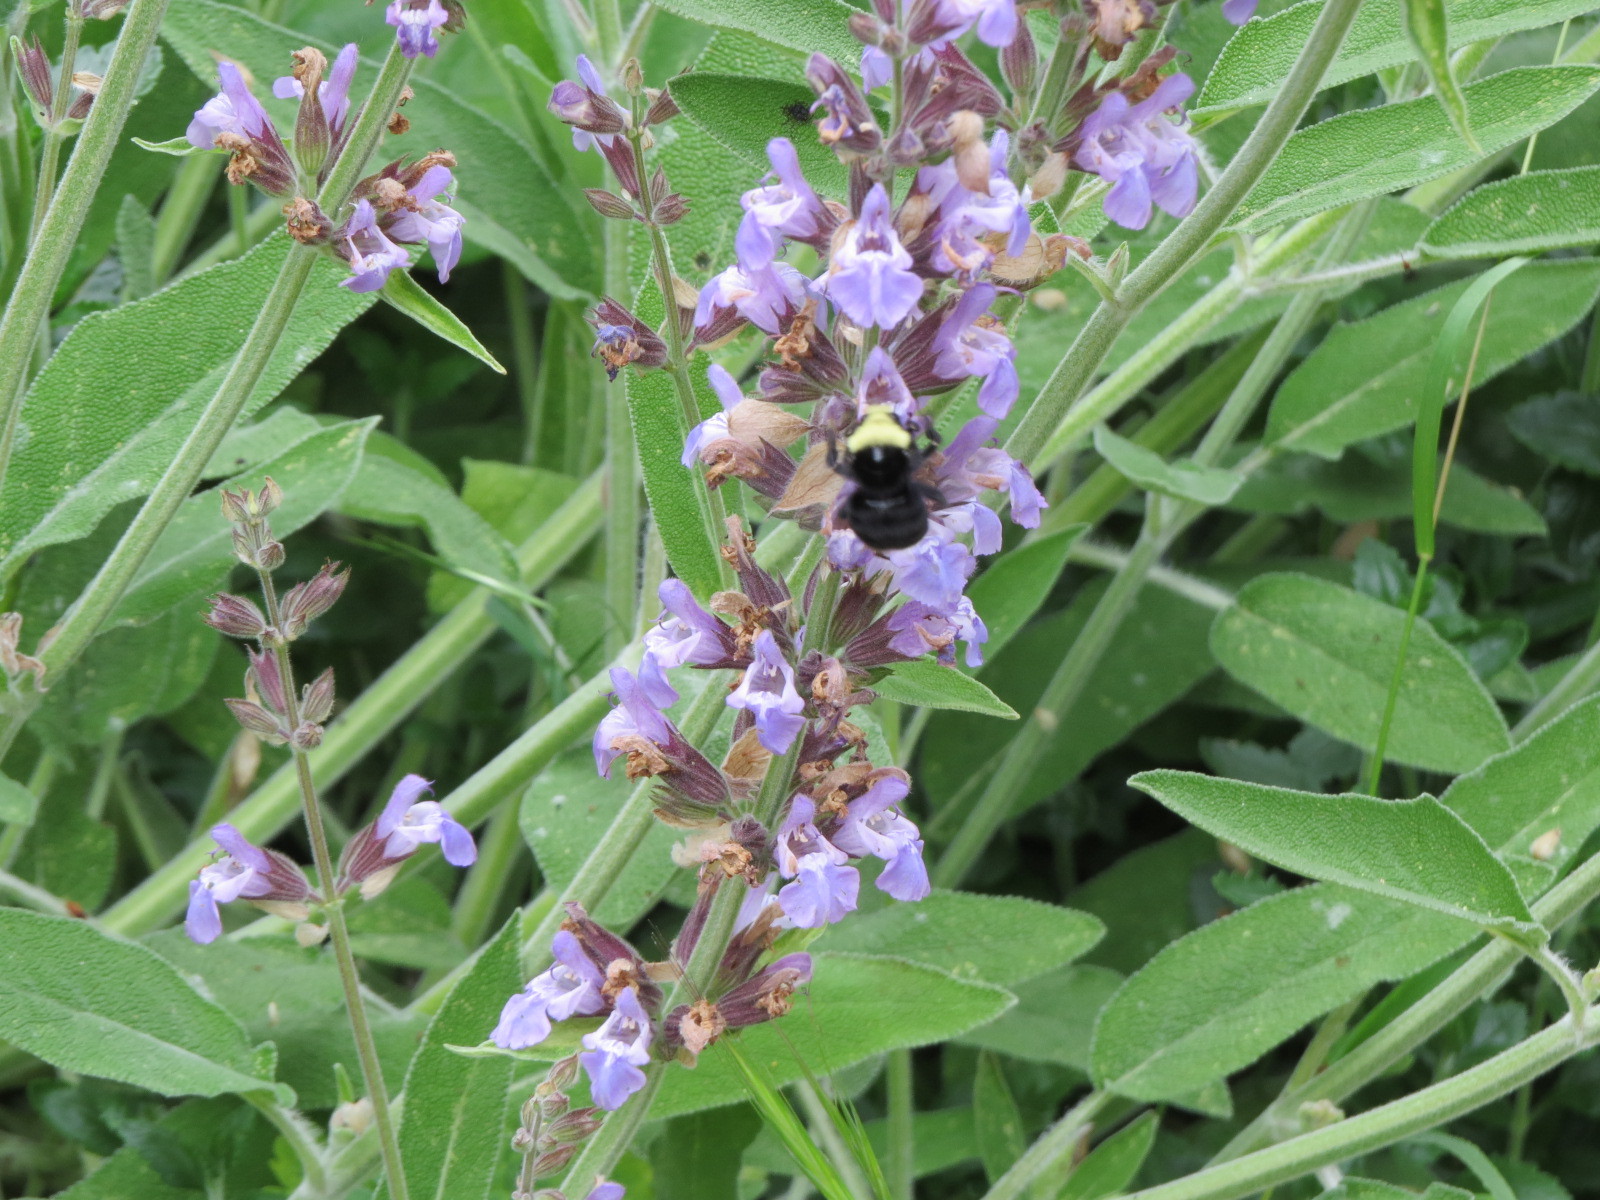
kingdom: Animalia
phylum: Arthropoda
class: Insecta
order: Hymenoptera
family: Apidae
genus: Bombus
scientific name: Bombus vosnesenskii
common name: Vosnesensky bumble bee
